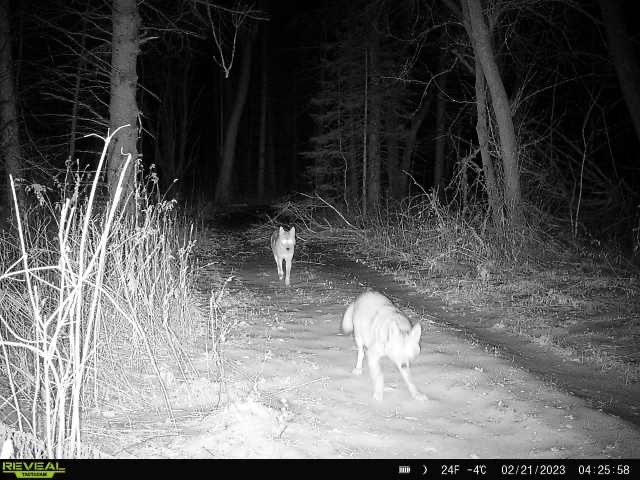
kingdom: Animalia
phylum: Chordata
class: Mammalia
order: Carnivora
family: Canidae
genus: Canis
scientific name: Canis latrans
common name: Coyote
